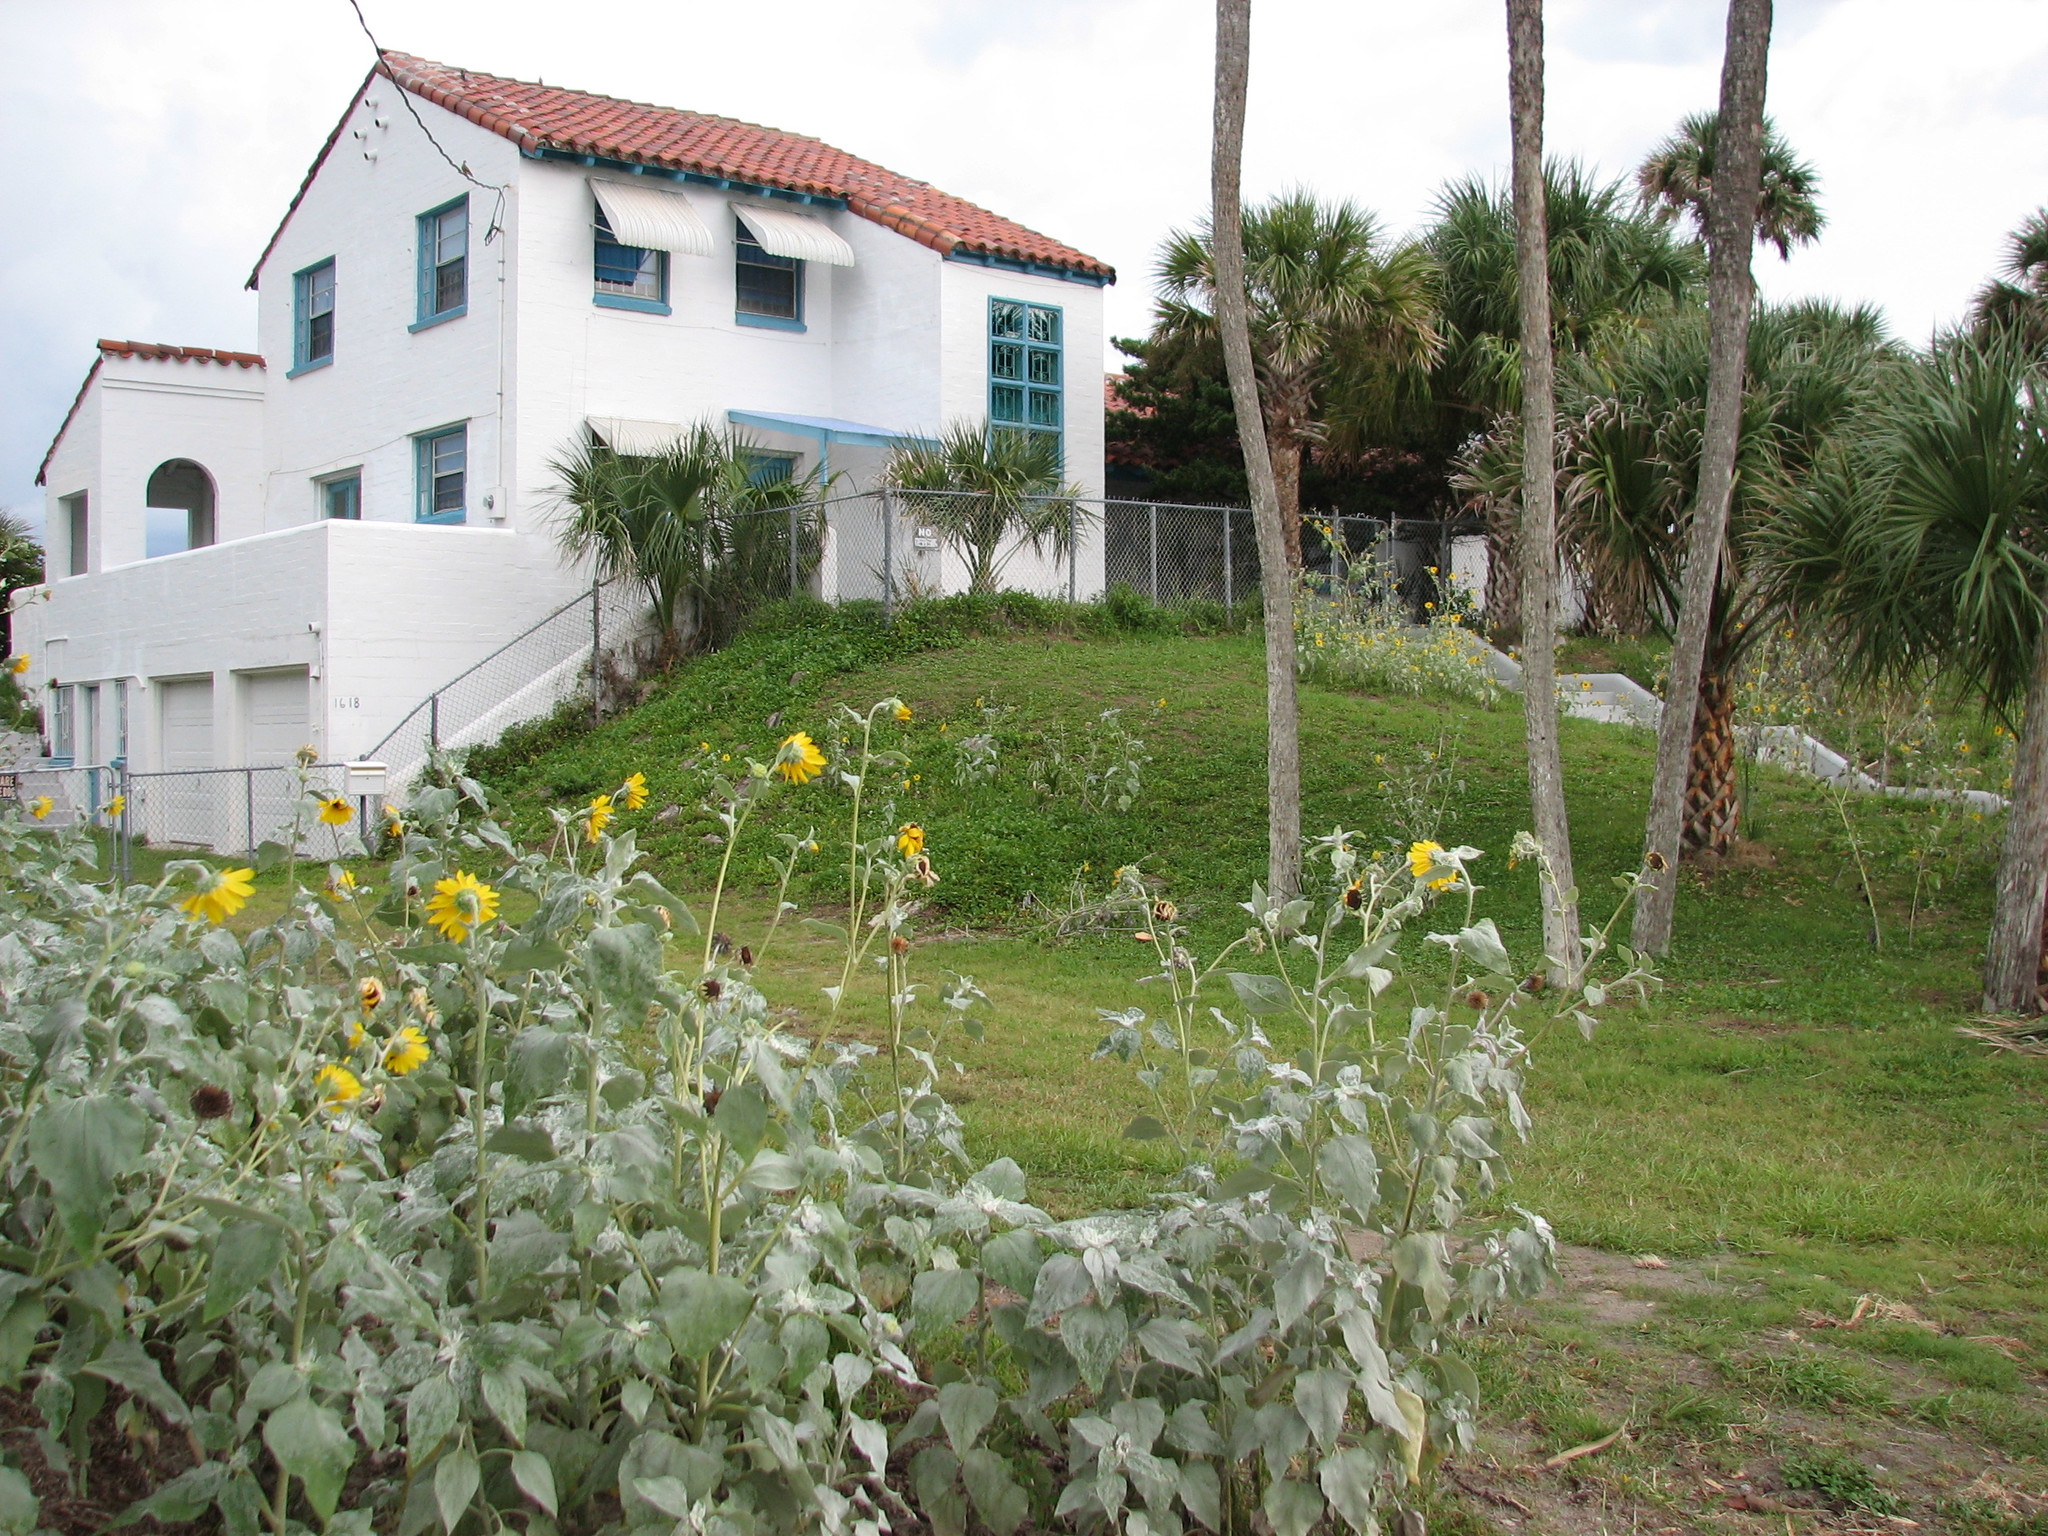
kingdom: Plantae
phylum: Tracheophyta
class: Magnoliopsida
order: Asterales
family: Asteraceae
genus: Helianthus
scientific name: Helianthus argophyllus
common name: Silverleaf sunflower
